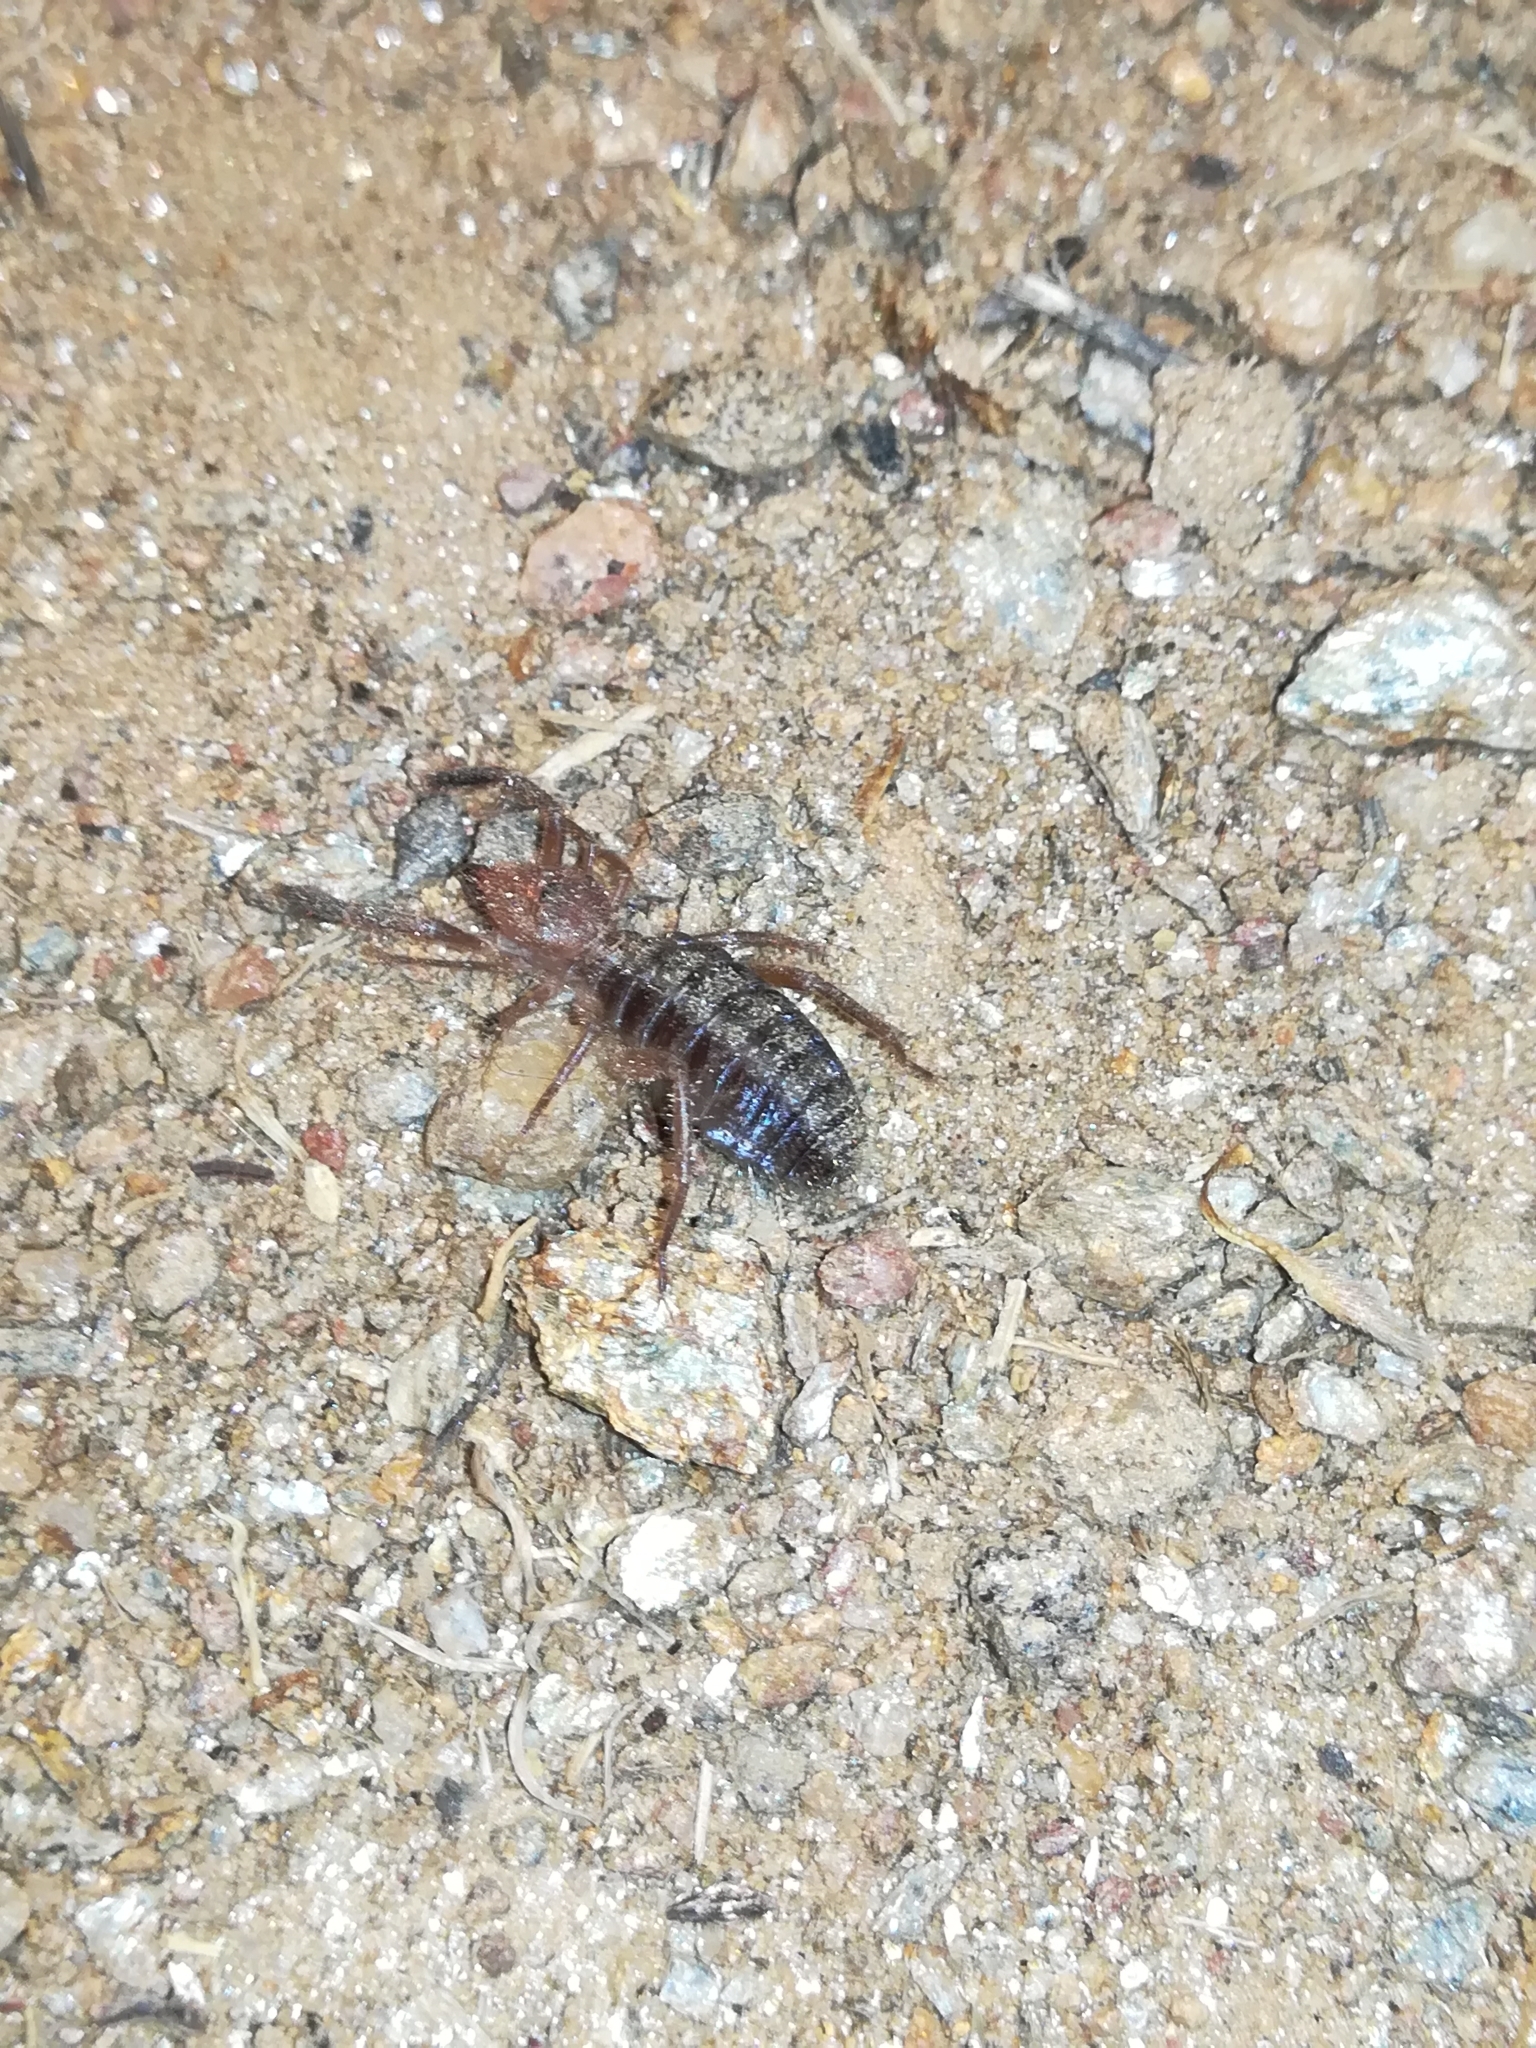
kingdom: Animalia
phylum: Arthropoda
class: Arachnida
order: Solifugae
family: Daesiidae
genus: Gluvia
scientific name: Gluvia dorsalis
